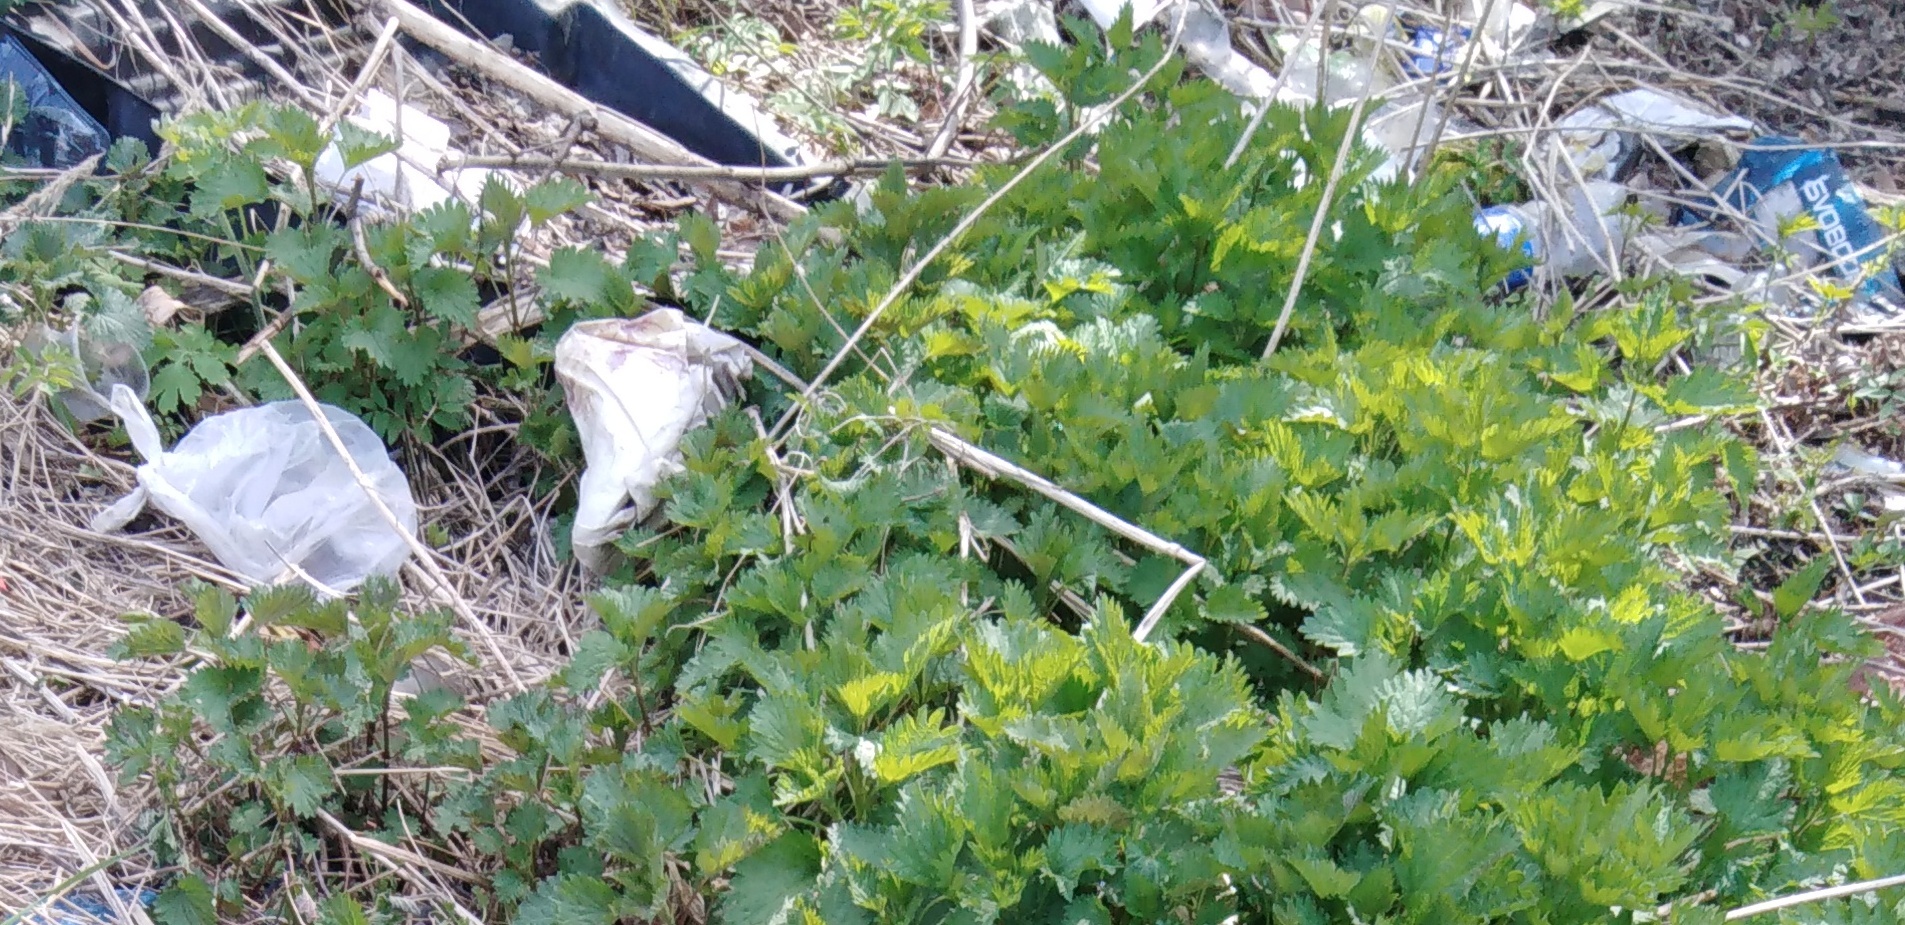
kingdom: Plantae
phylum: Tracheophyta
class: Magnoliopsida
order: Rosales
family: Urticaceae
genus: Urtica
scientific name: Urtica dioica
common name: Common nettle
